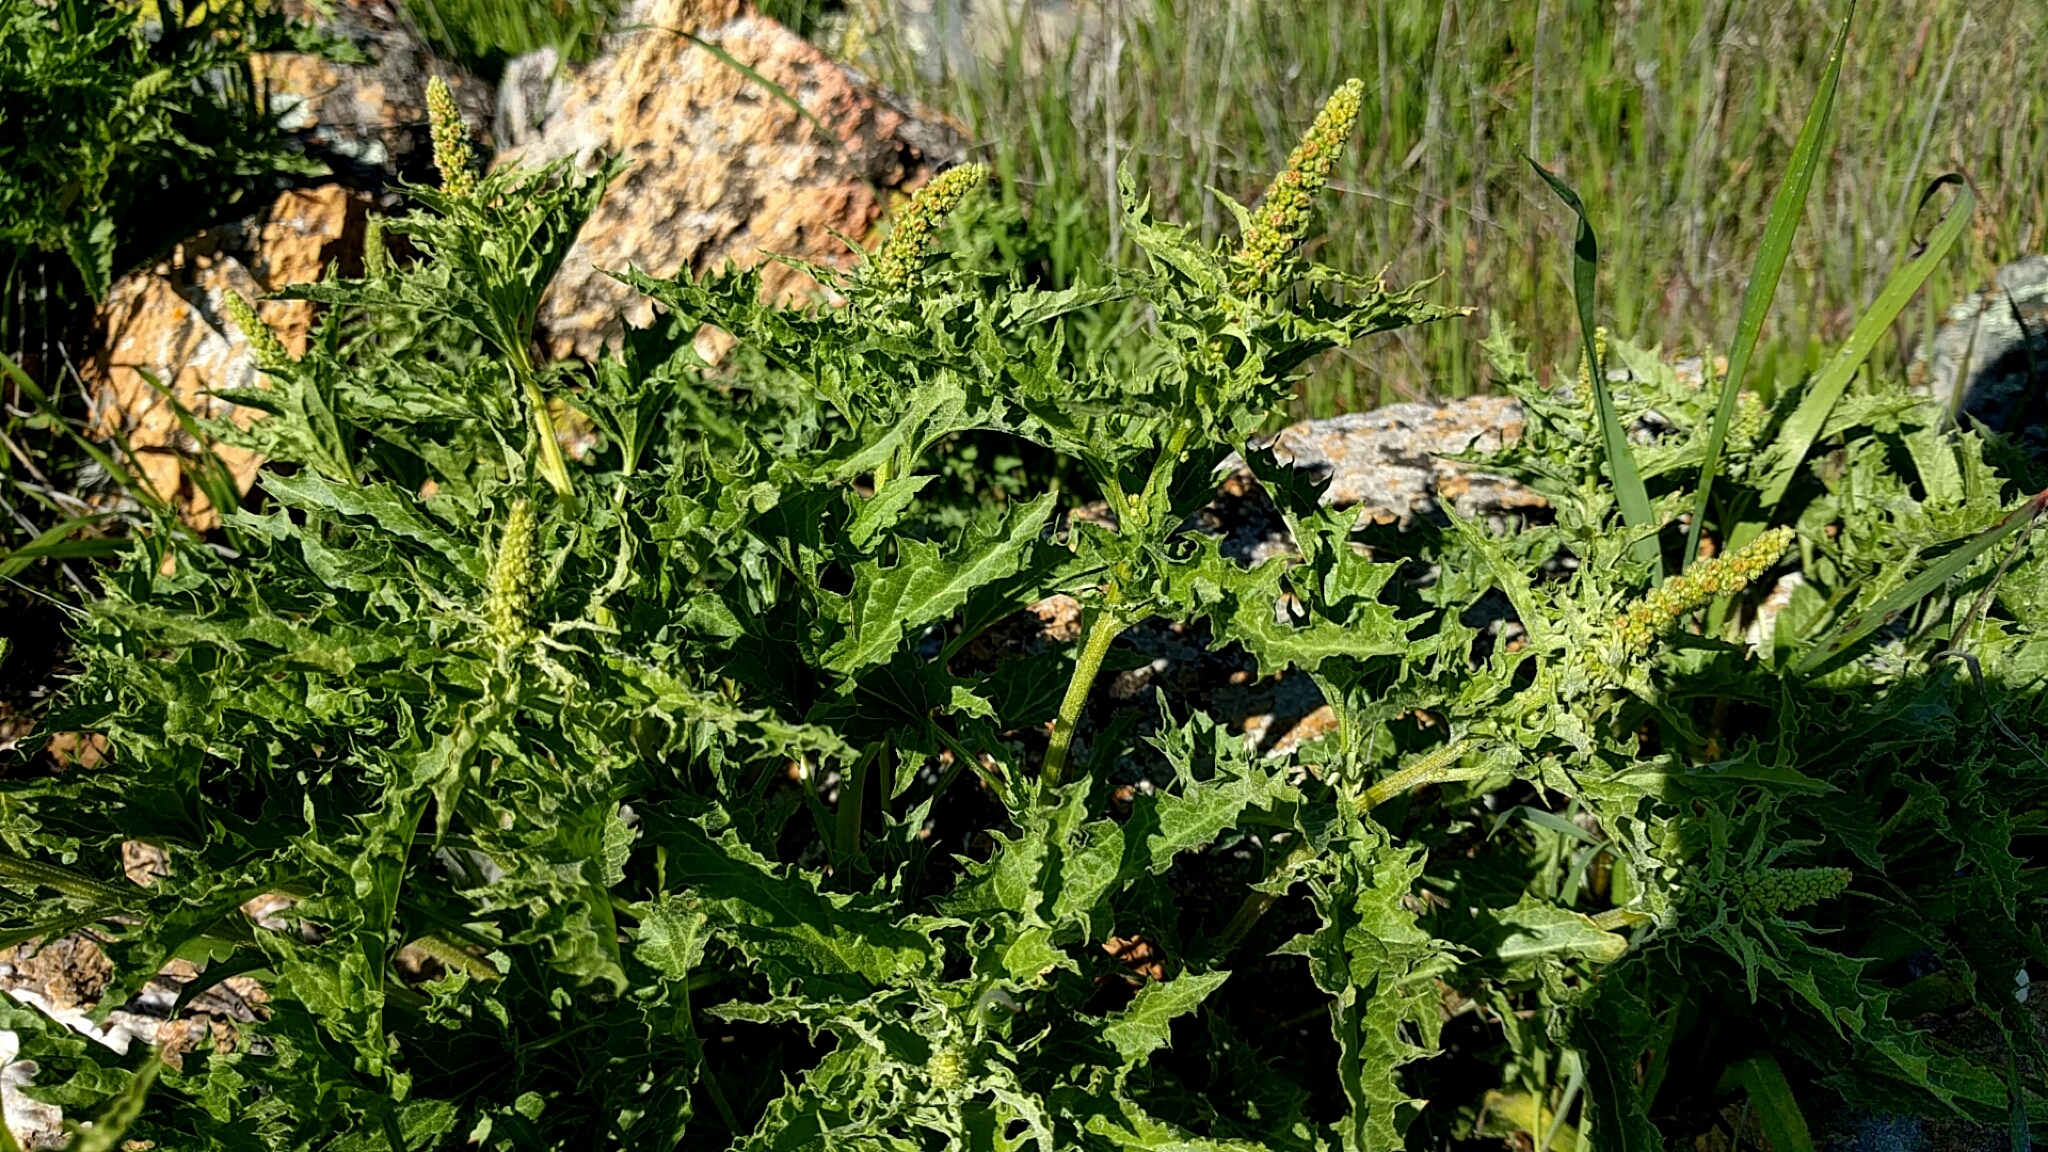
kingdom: Plantae
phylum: Tracheophyta
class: Magnoliopsida
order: Caryophyllales
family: Amaranthaceae
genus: Blitum
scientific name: Blitum californicum
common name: California goosefoot
